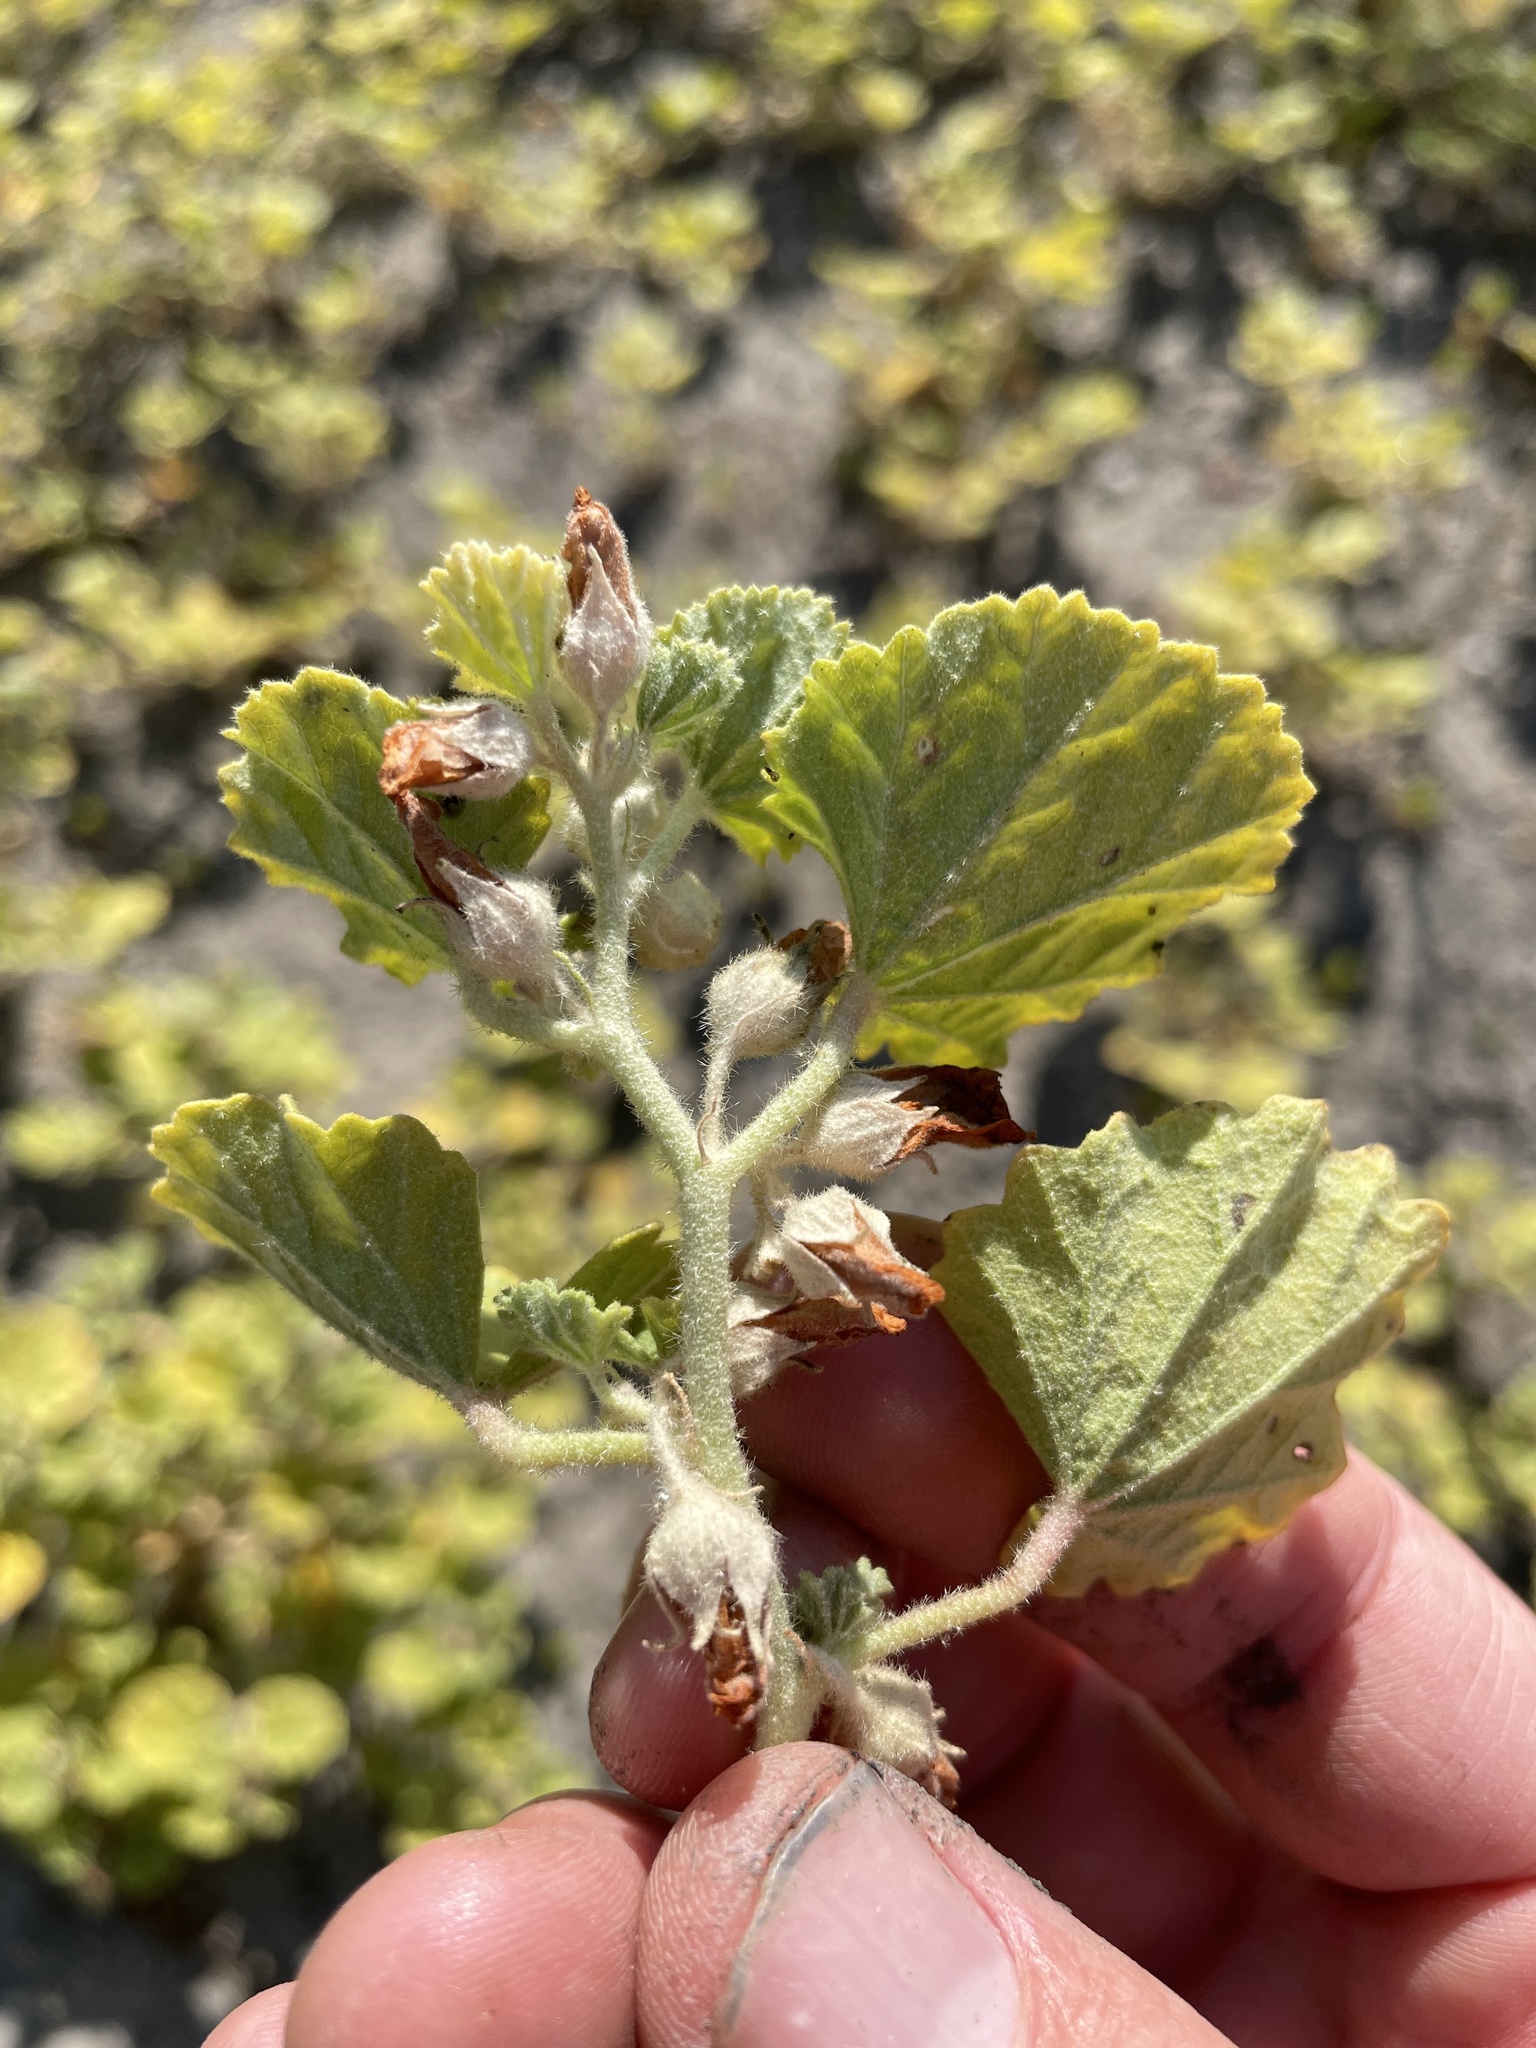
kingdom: Plantae
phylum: Tracheophyta
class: Magnoliopsida
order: Malvales
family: Malvaceae
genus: Malvella
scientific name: Malvella leprosa
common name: Alkali-mallow
